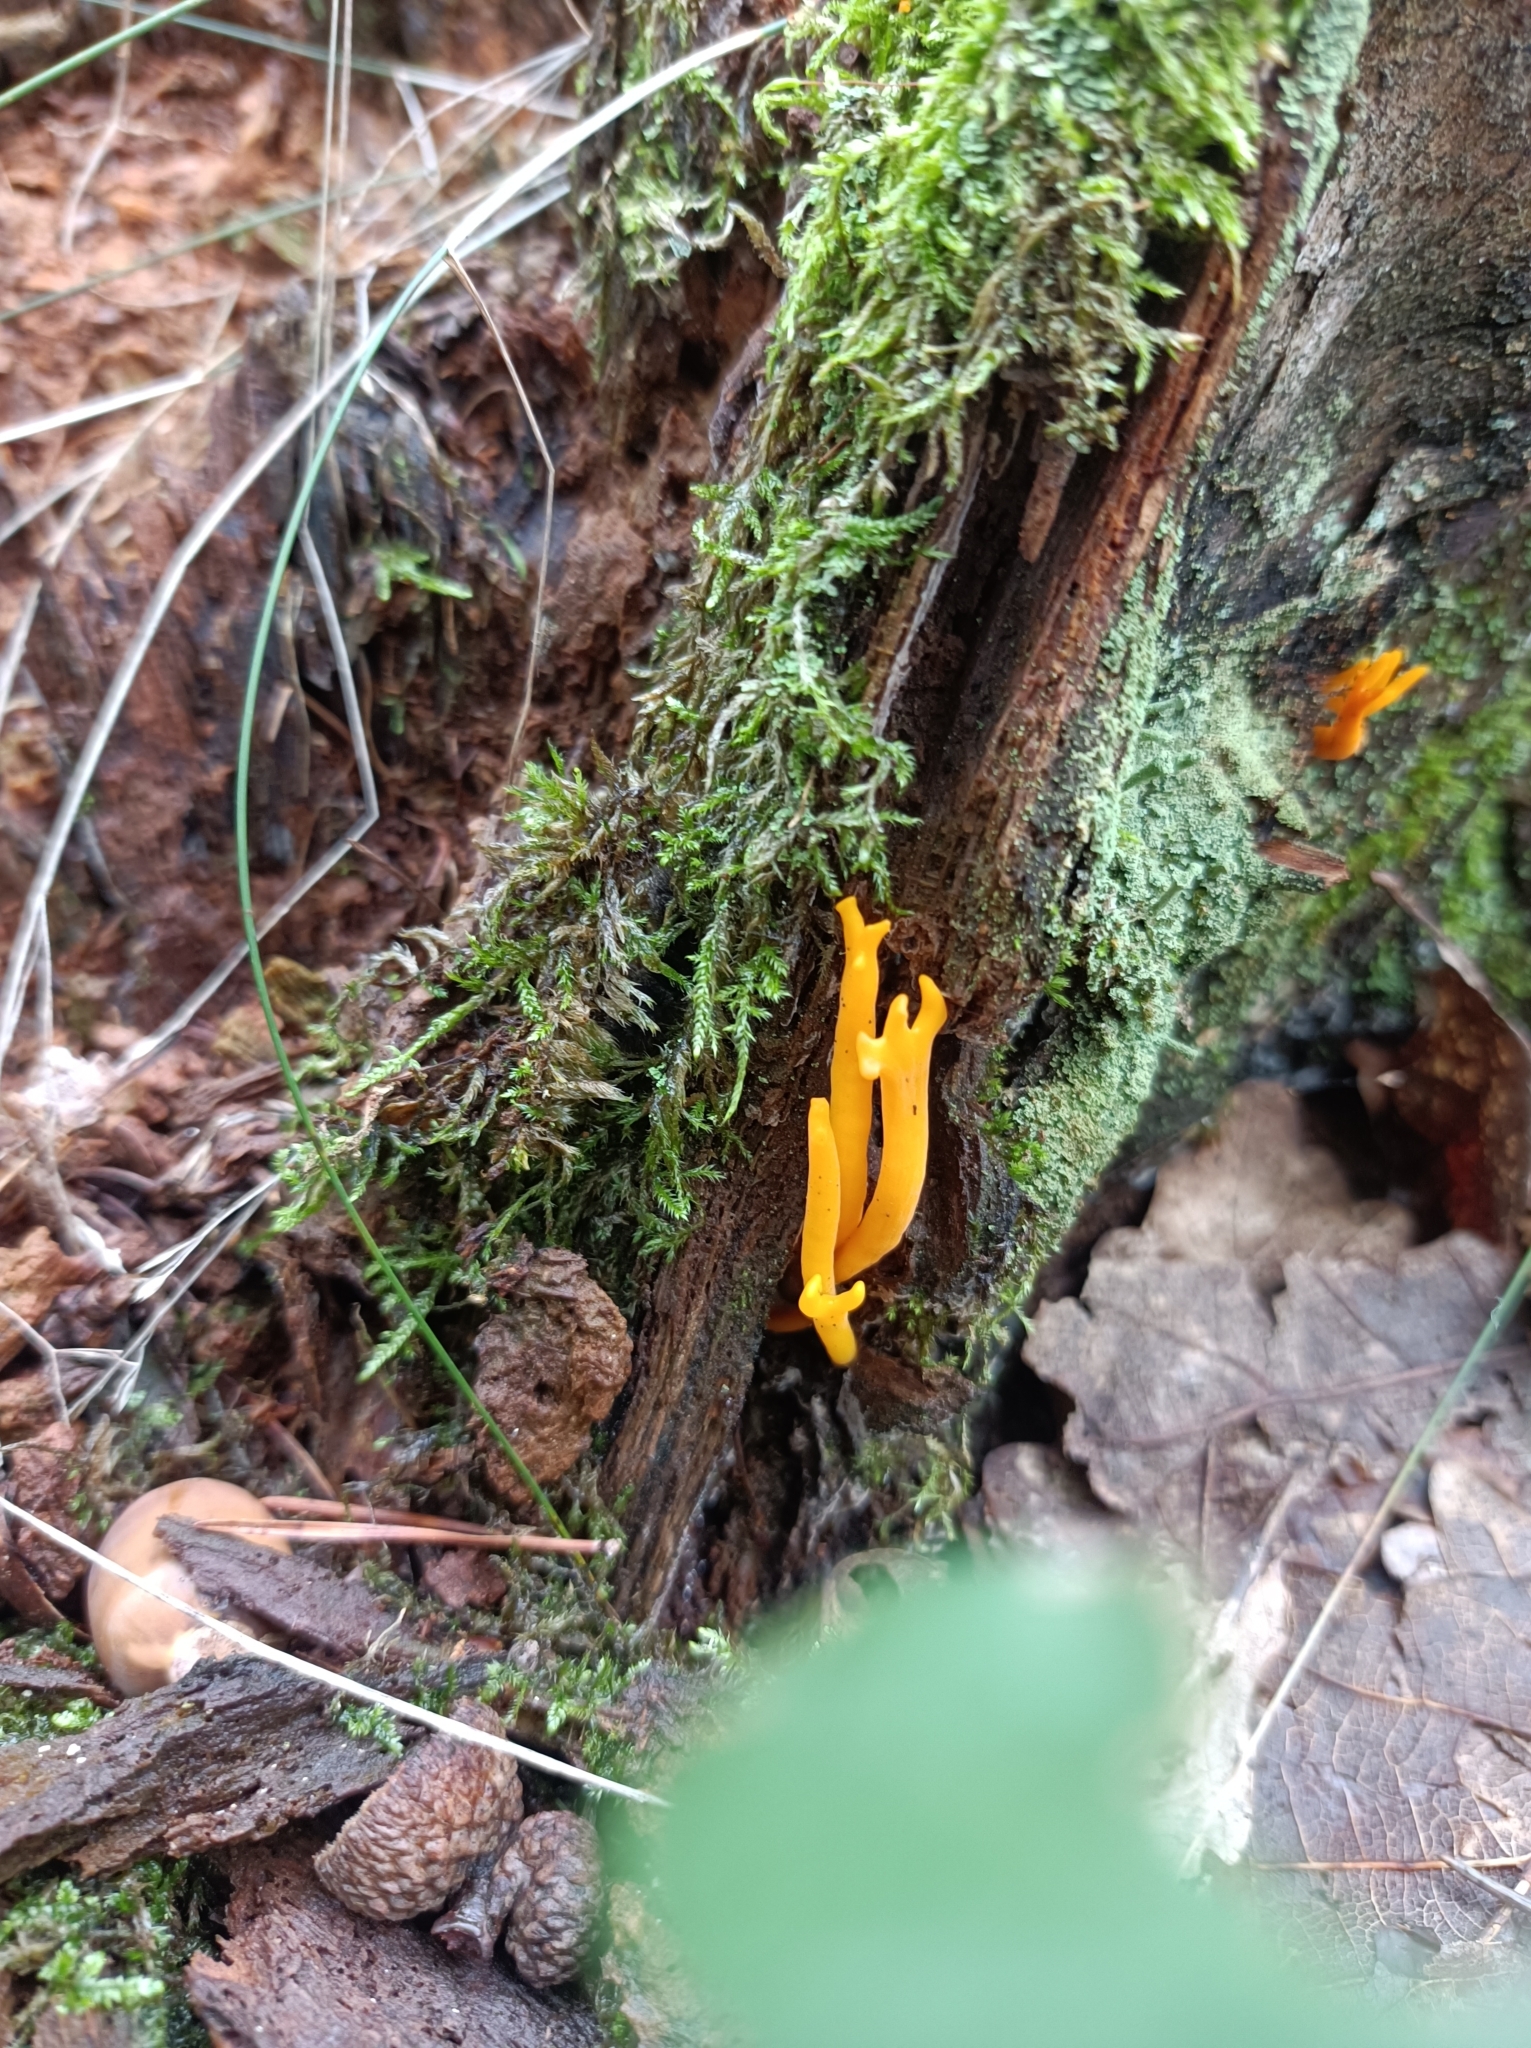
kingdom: Fungi
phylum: Basidiomycota
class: Dacrymycetes
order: Dacrymycetales
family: Dacrymycetaceae
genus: Calocera
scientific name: Calocera viscosa
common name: Yellow stagshorn
